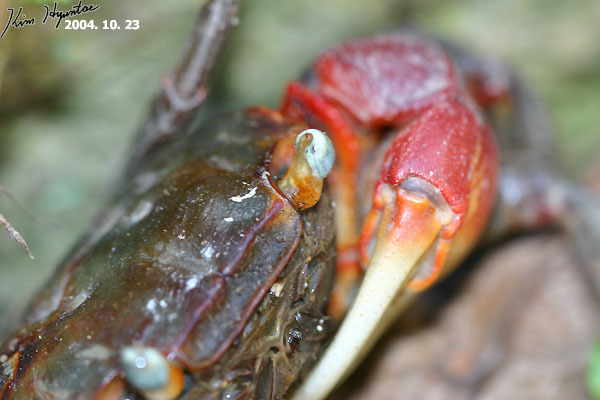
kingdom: Animalia
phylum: Arthropoda
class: Malacostraca
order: Decapoda
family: Sesarmidae
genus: Chiromantes
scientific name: Chiromantes haematocheir
